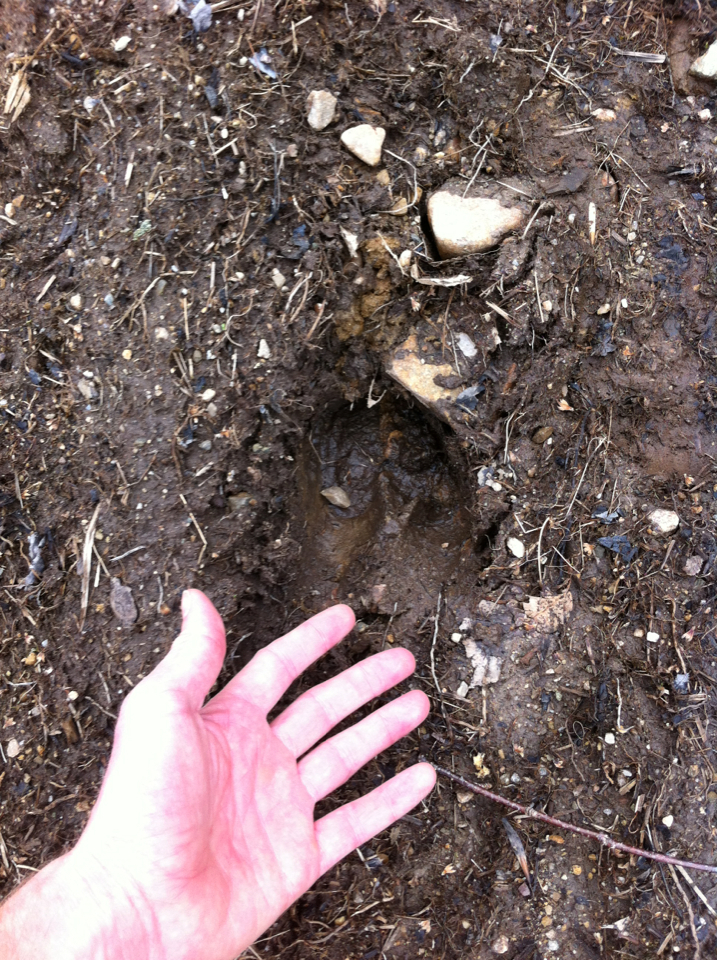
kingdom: Animalia
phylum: Chordata
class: Mammalia
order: Artiodactyla
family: Cervidae
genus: Alces
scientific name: Alces alces
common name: Moose
